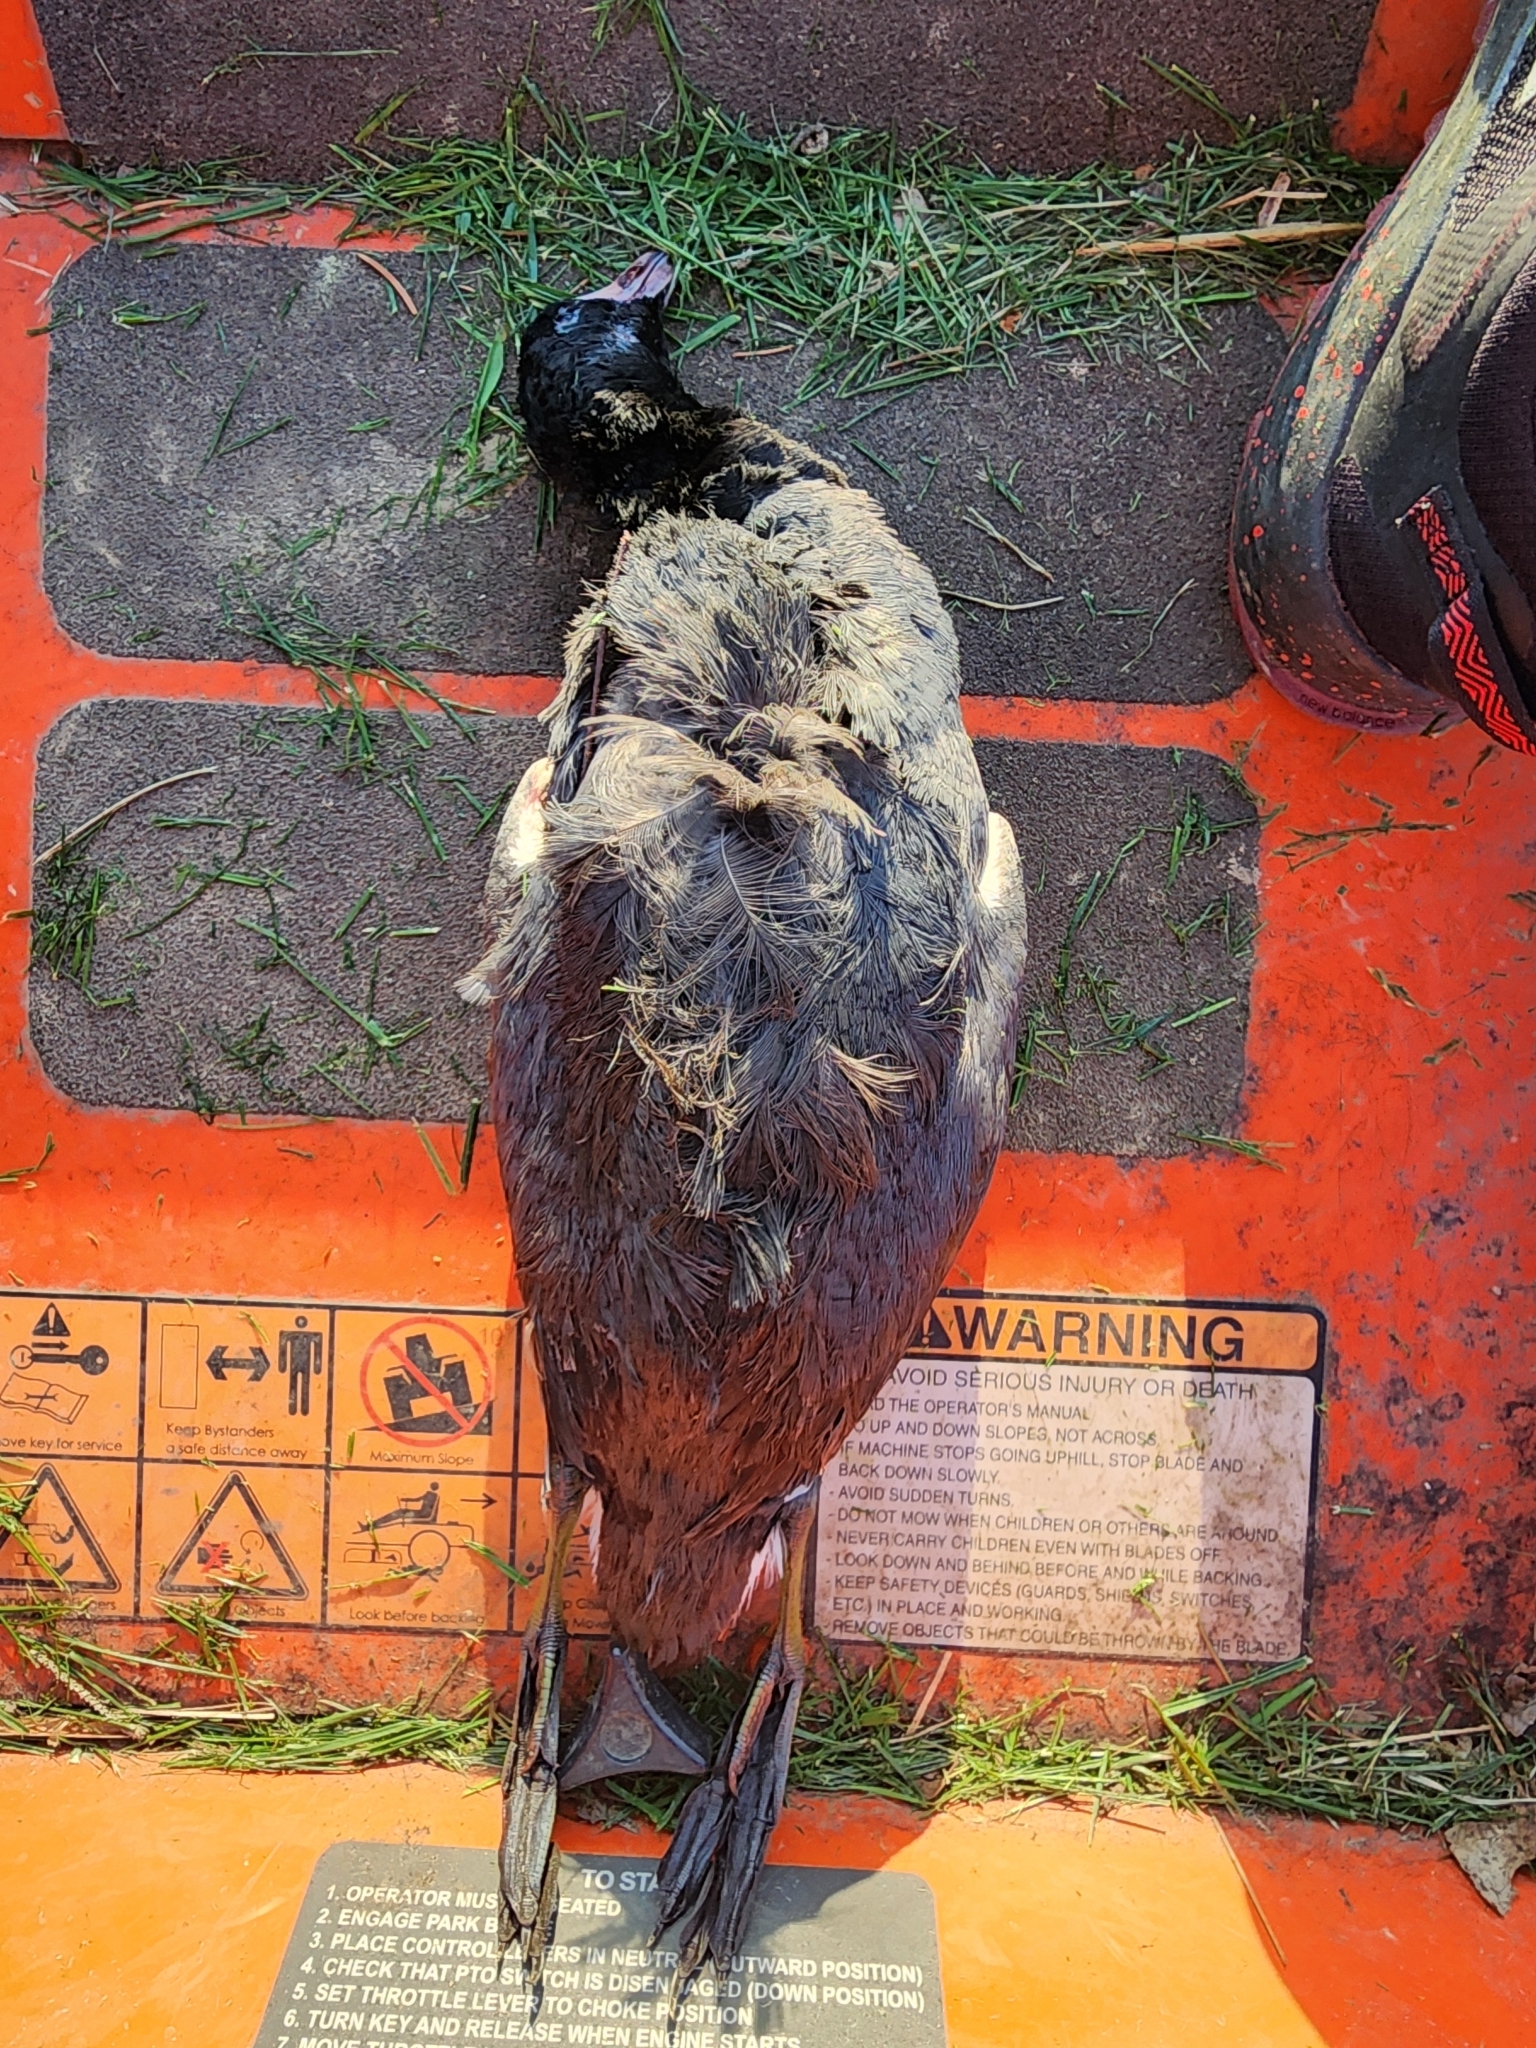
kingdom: Animalia
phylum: Chordata
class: Aves
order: Gruiformes
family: Rallidae
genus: Fulica
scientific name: Fulica americana
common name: American coot
